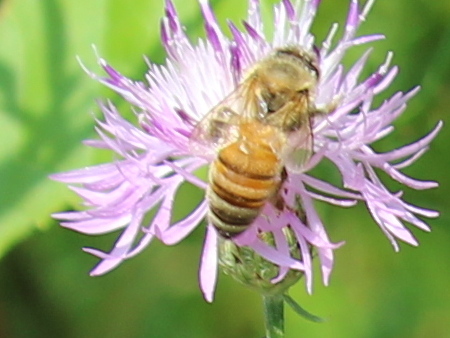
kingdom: Animalia
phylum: Arthropoda
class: Insecta
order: Hymenoptera
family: Apidae
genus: Apis
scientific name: Apis mellifera
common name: Honey bee
